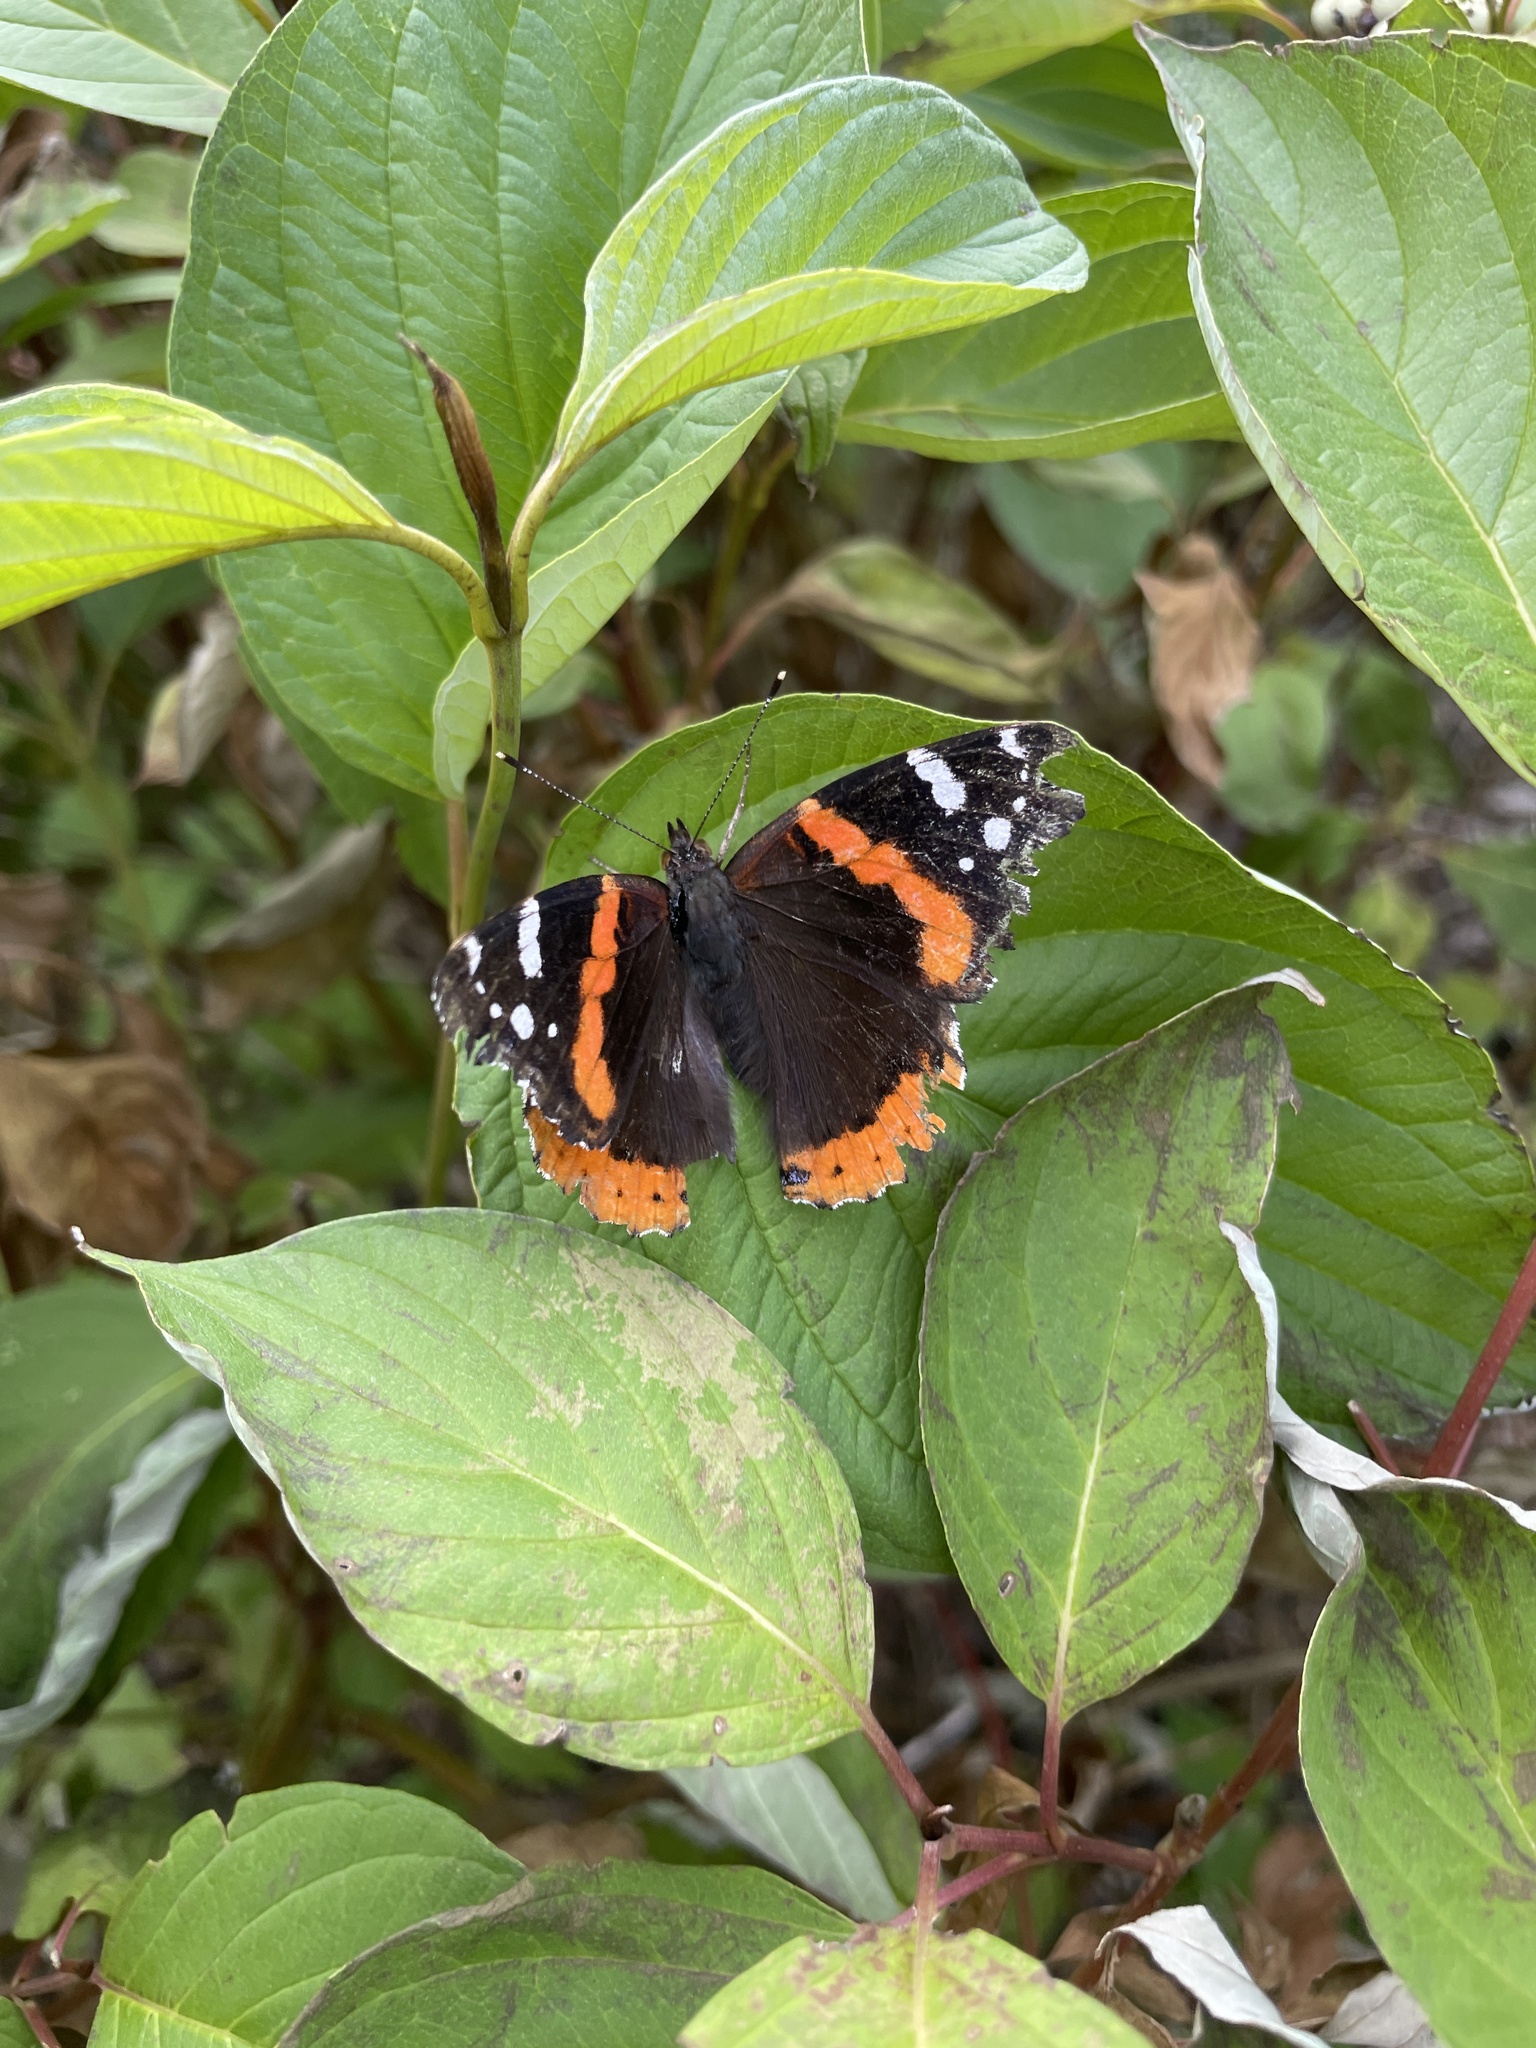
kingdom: Animalia
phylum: Arthropoda
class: Insecta
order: Lepidoptera
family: Nymphalidae
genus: Vanessa
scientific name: Vanessa atalanta
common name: Red admiral
